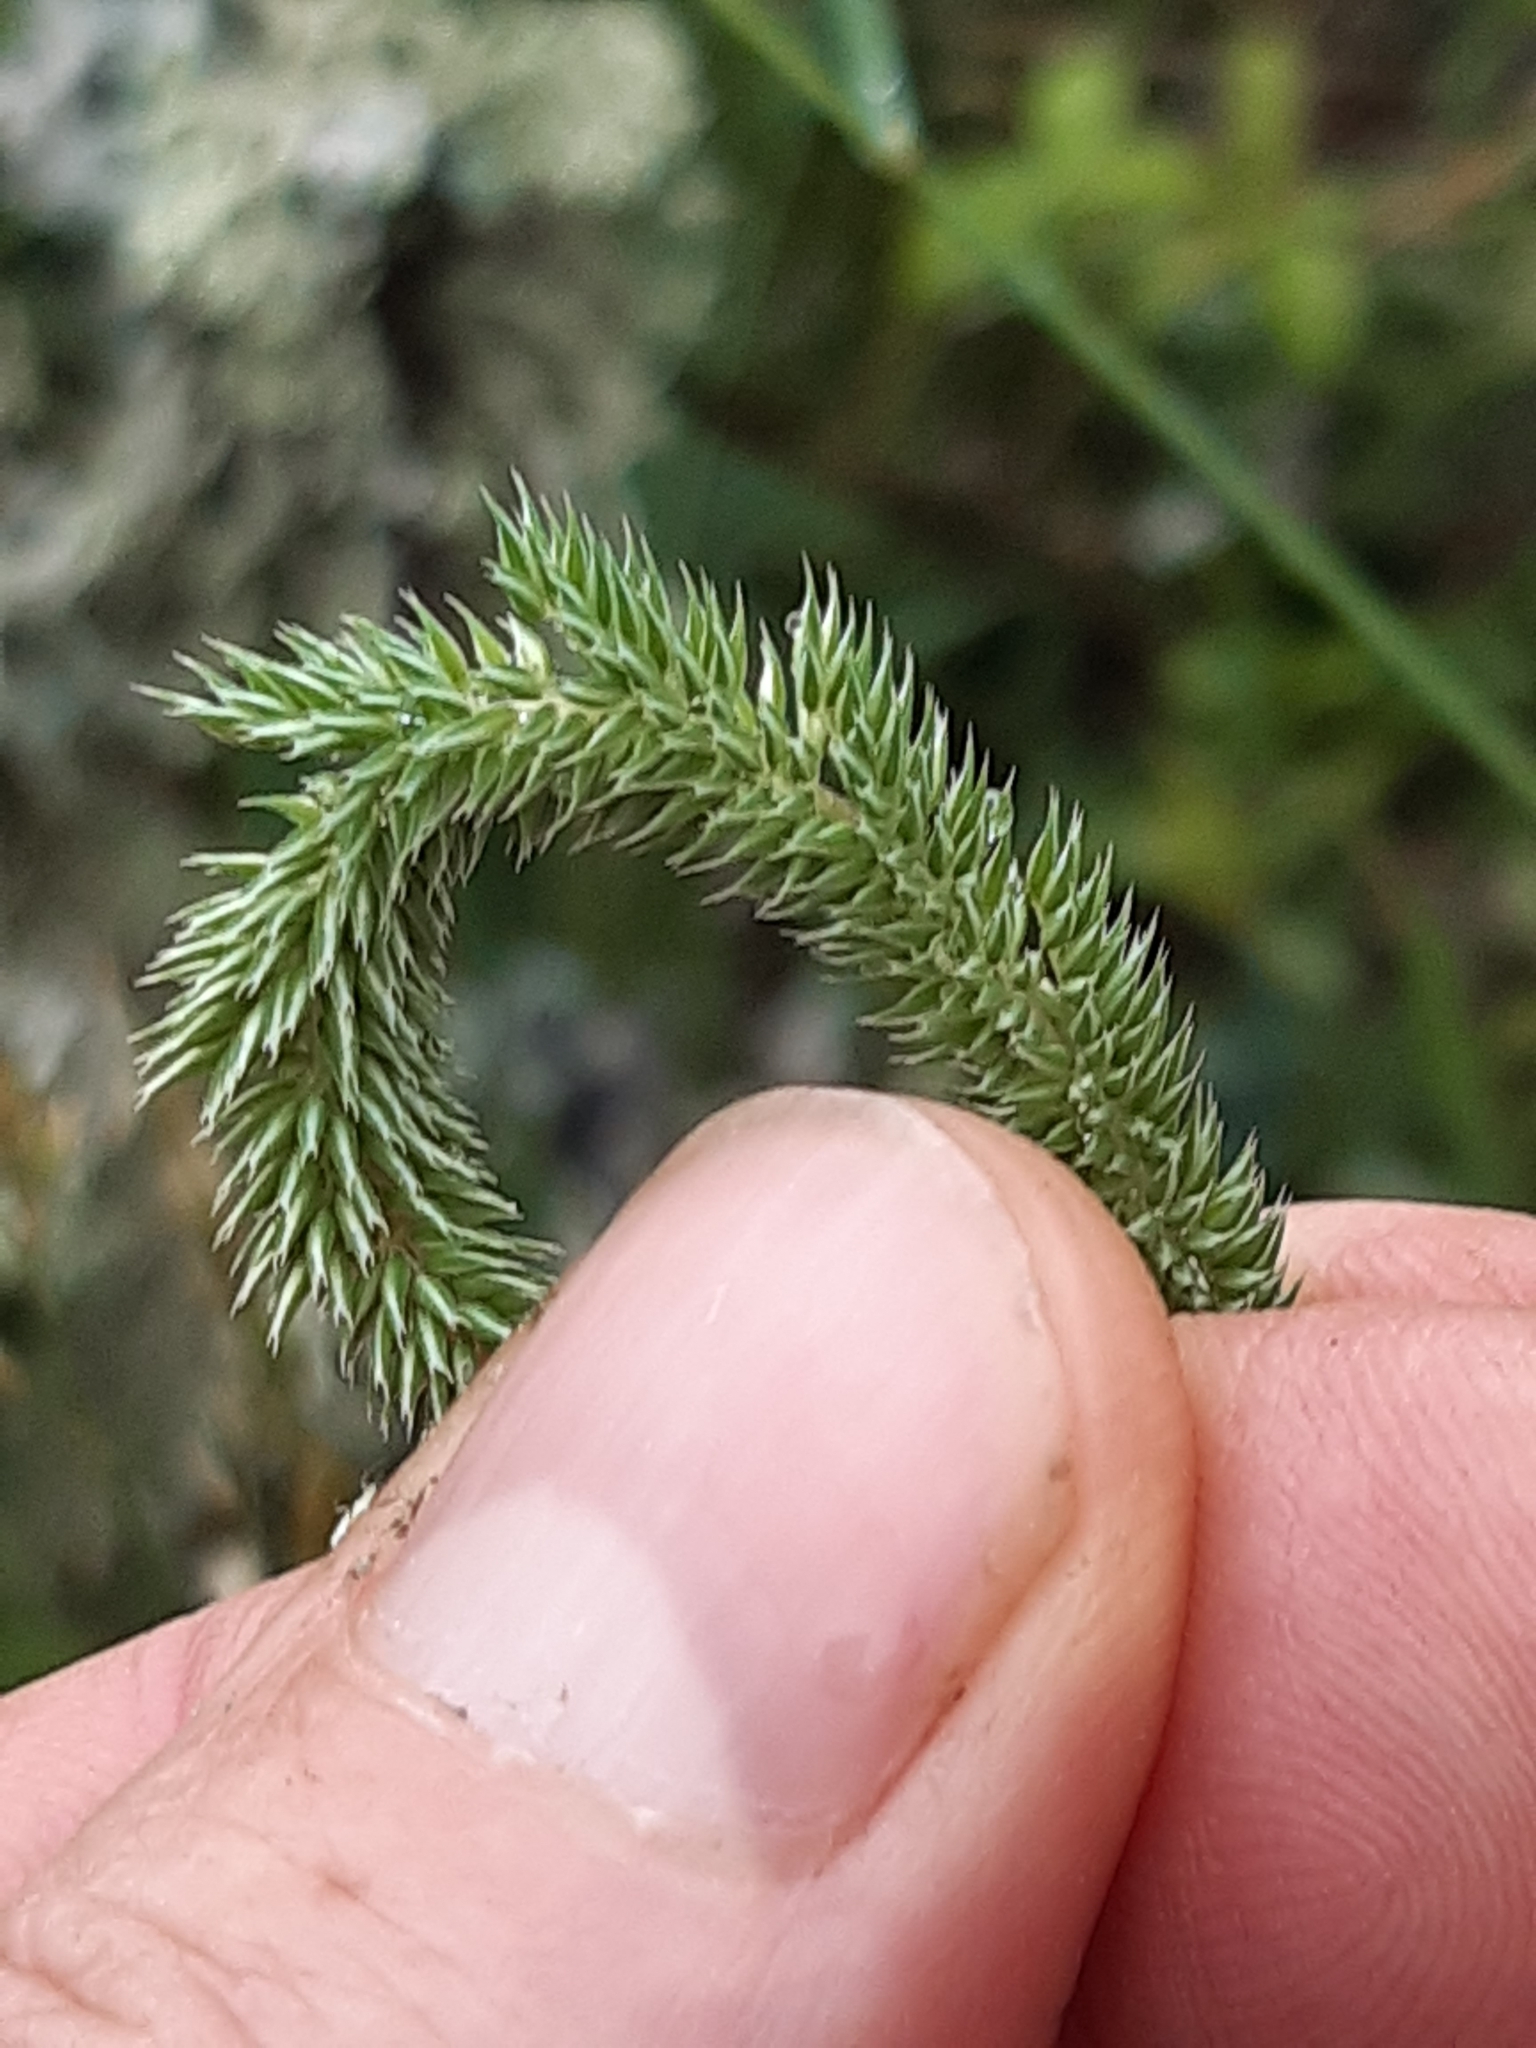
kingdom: Plantae
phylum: Tracheophyta
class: Liliopsida
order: Poales
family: Poaceae
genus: Phleum
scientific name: Phleum phleoides
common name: Purple-stem cat's-tail
